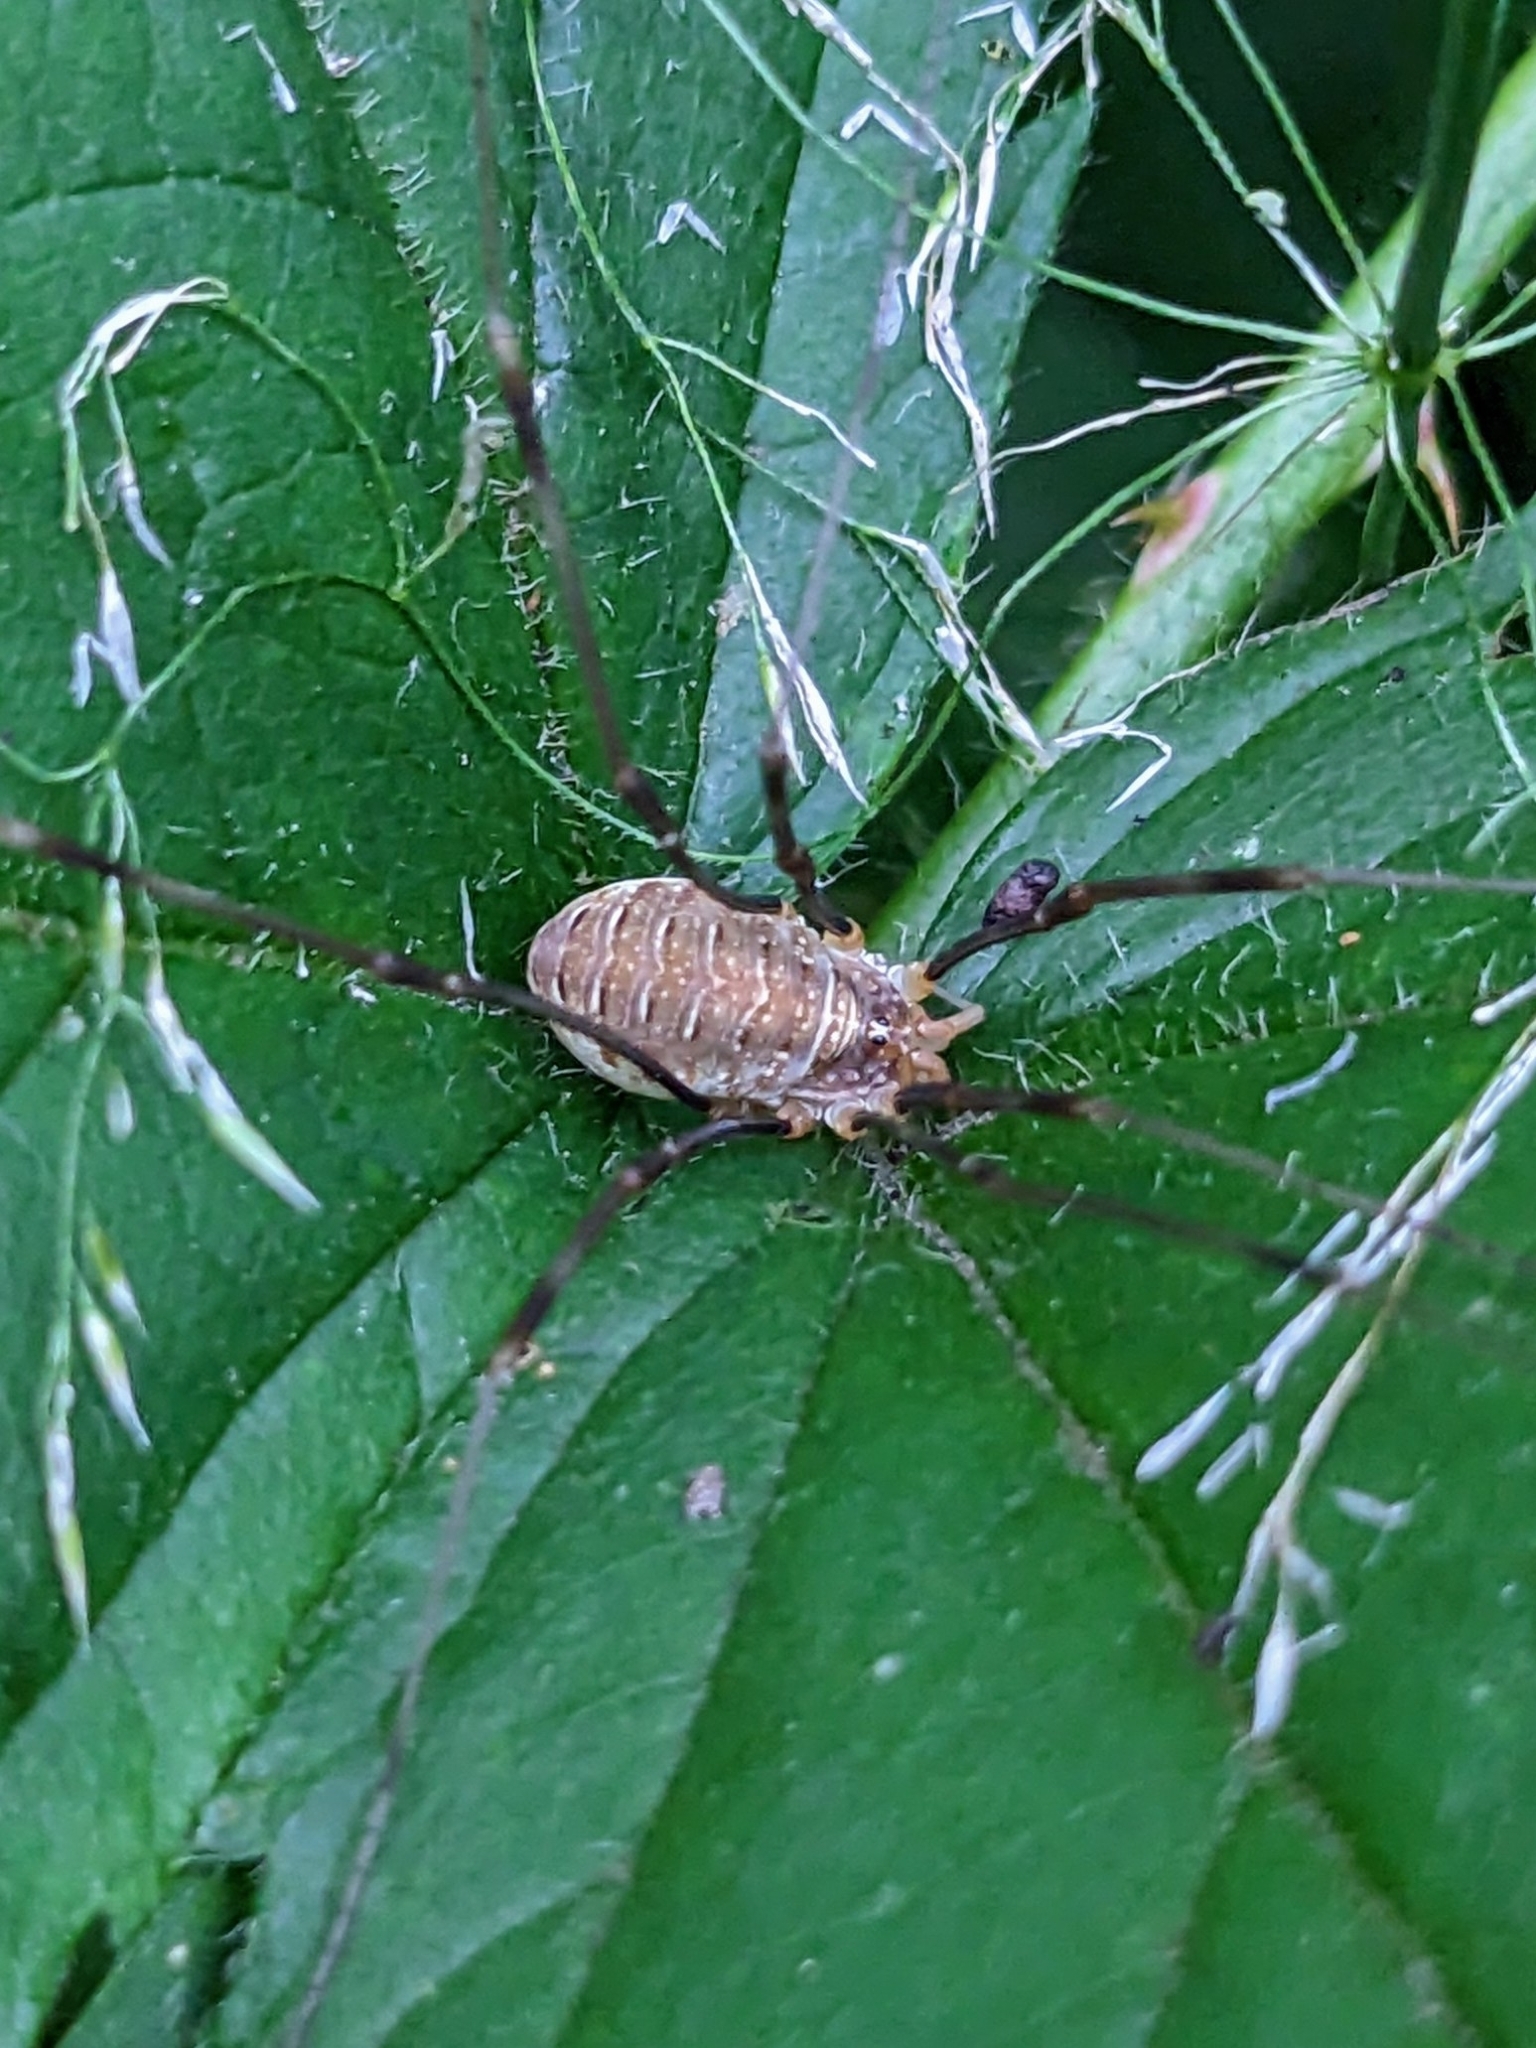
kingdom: Animalia
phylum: Arthropoda
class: Arachnida
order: Opiliones
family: Phalangiidae
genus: Opilio
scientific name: Opilio canestrinii
